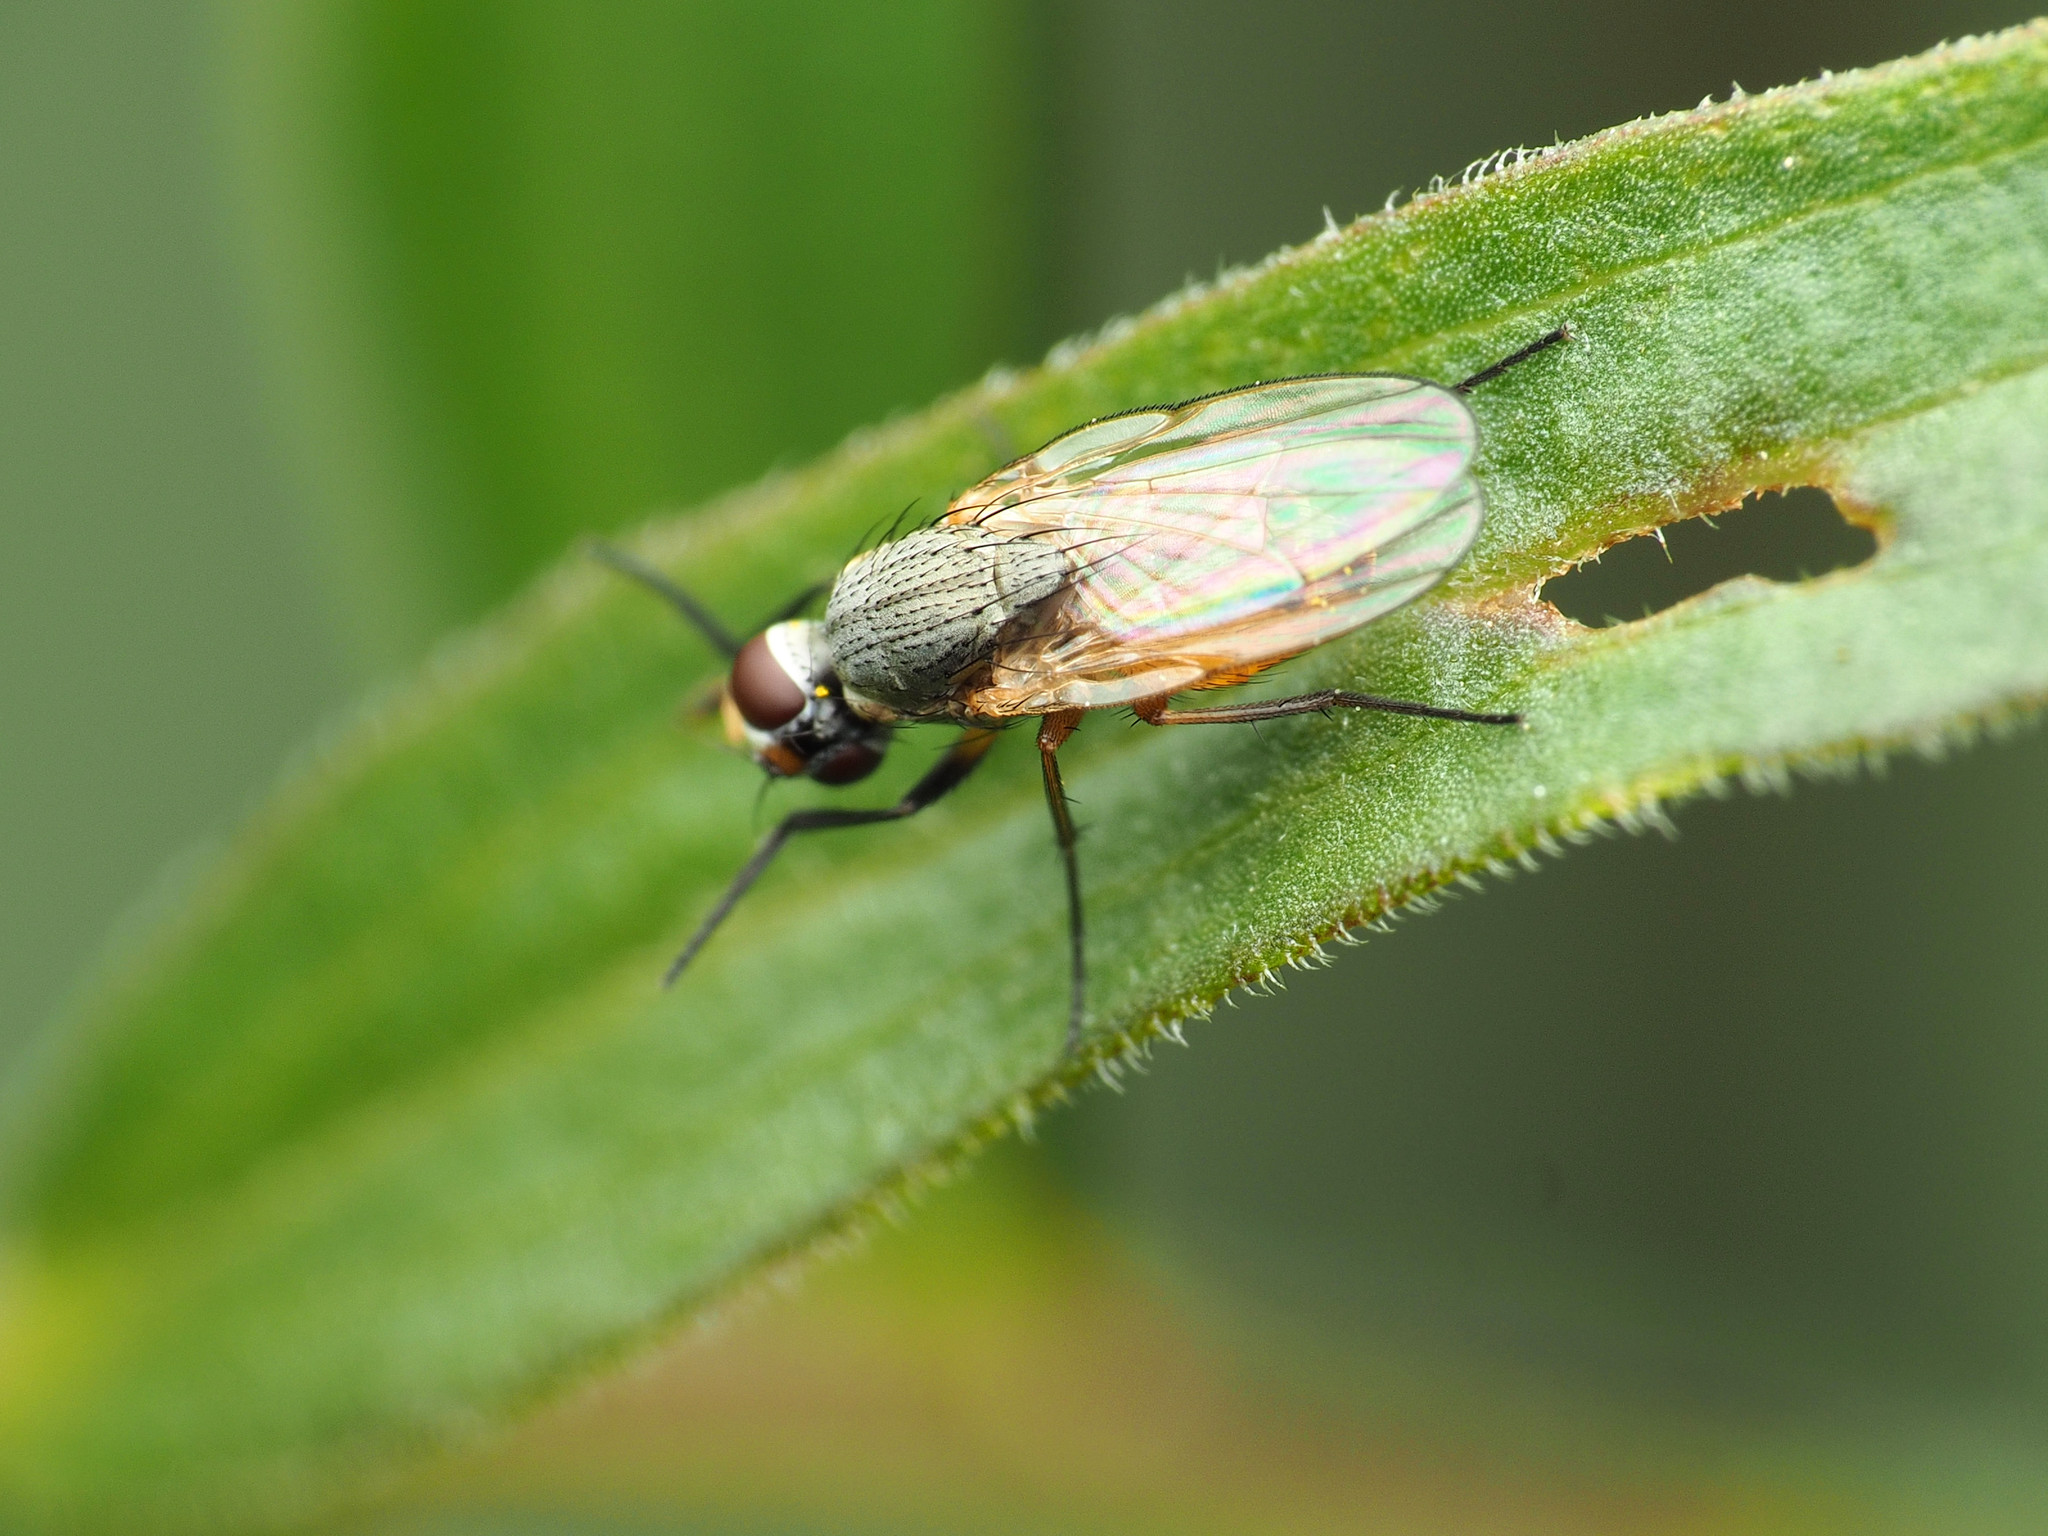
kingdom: Animalia
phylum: Arthropoda
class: Insecta
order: Diptera
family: Muscidae
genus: Atherigona
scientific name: Atherigona reversura
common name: Bermudagrass stem maggot
